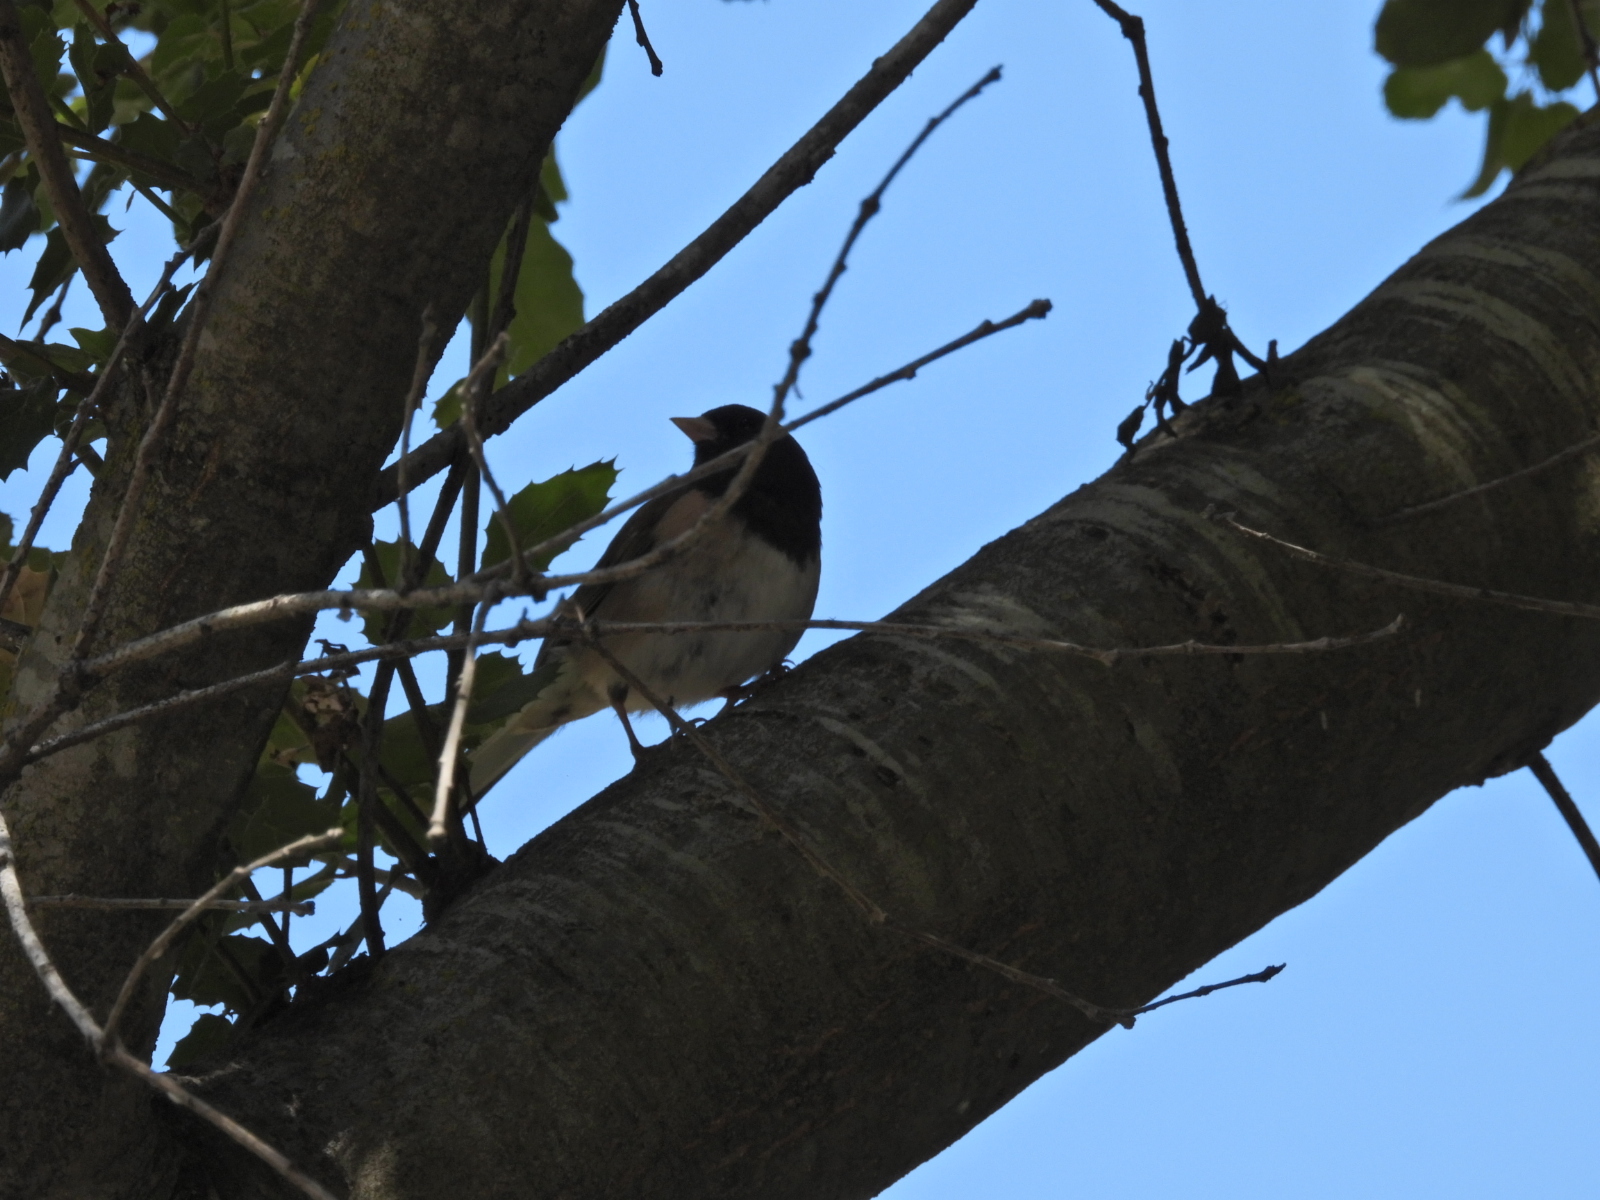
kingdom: Animalia
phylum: Chordata
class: Aves
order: Passeriformes
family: Passerellidae
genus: Junco
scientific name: Junco hyemalis
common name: Dark-eyed junco
